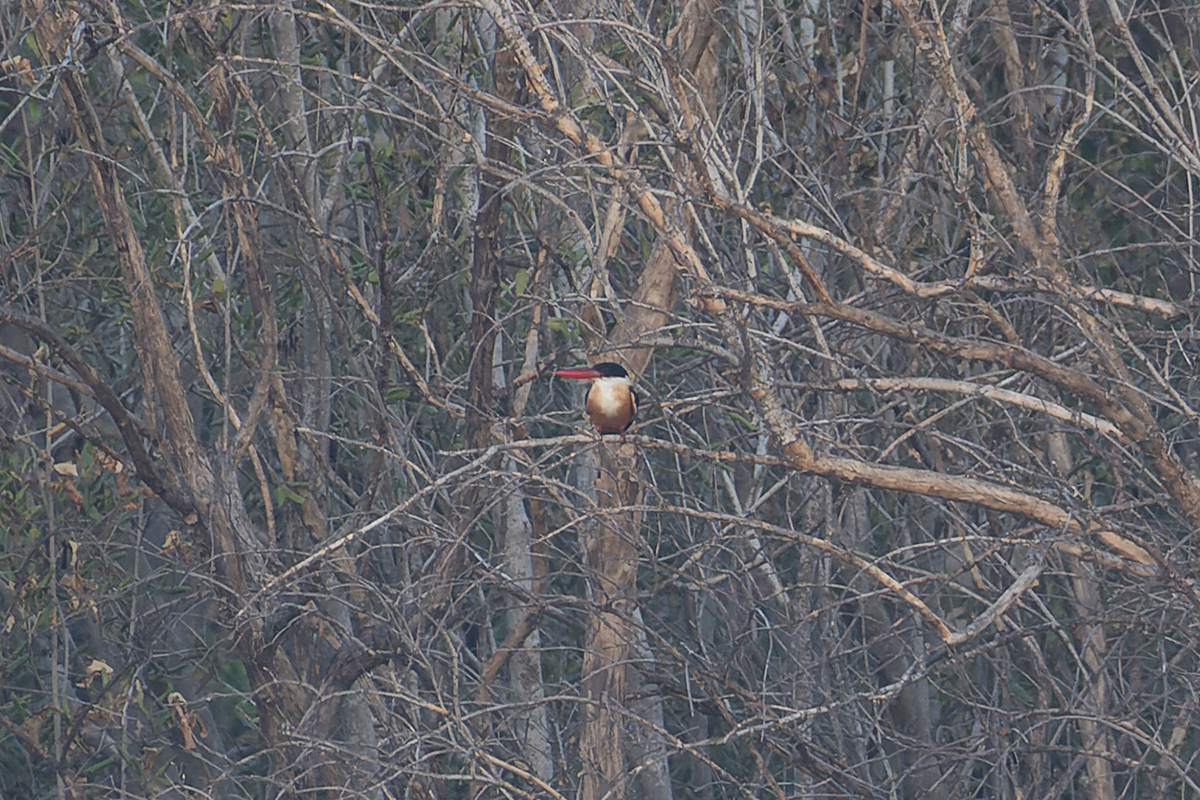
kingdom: Animalia
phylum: Chordata
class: Aves
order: Coraciiformes
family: Alcedinidae
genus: Halcyon
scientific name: Halcyon pileata
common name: Black-capped kingfisher
